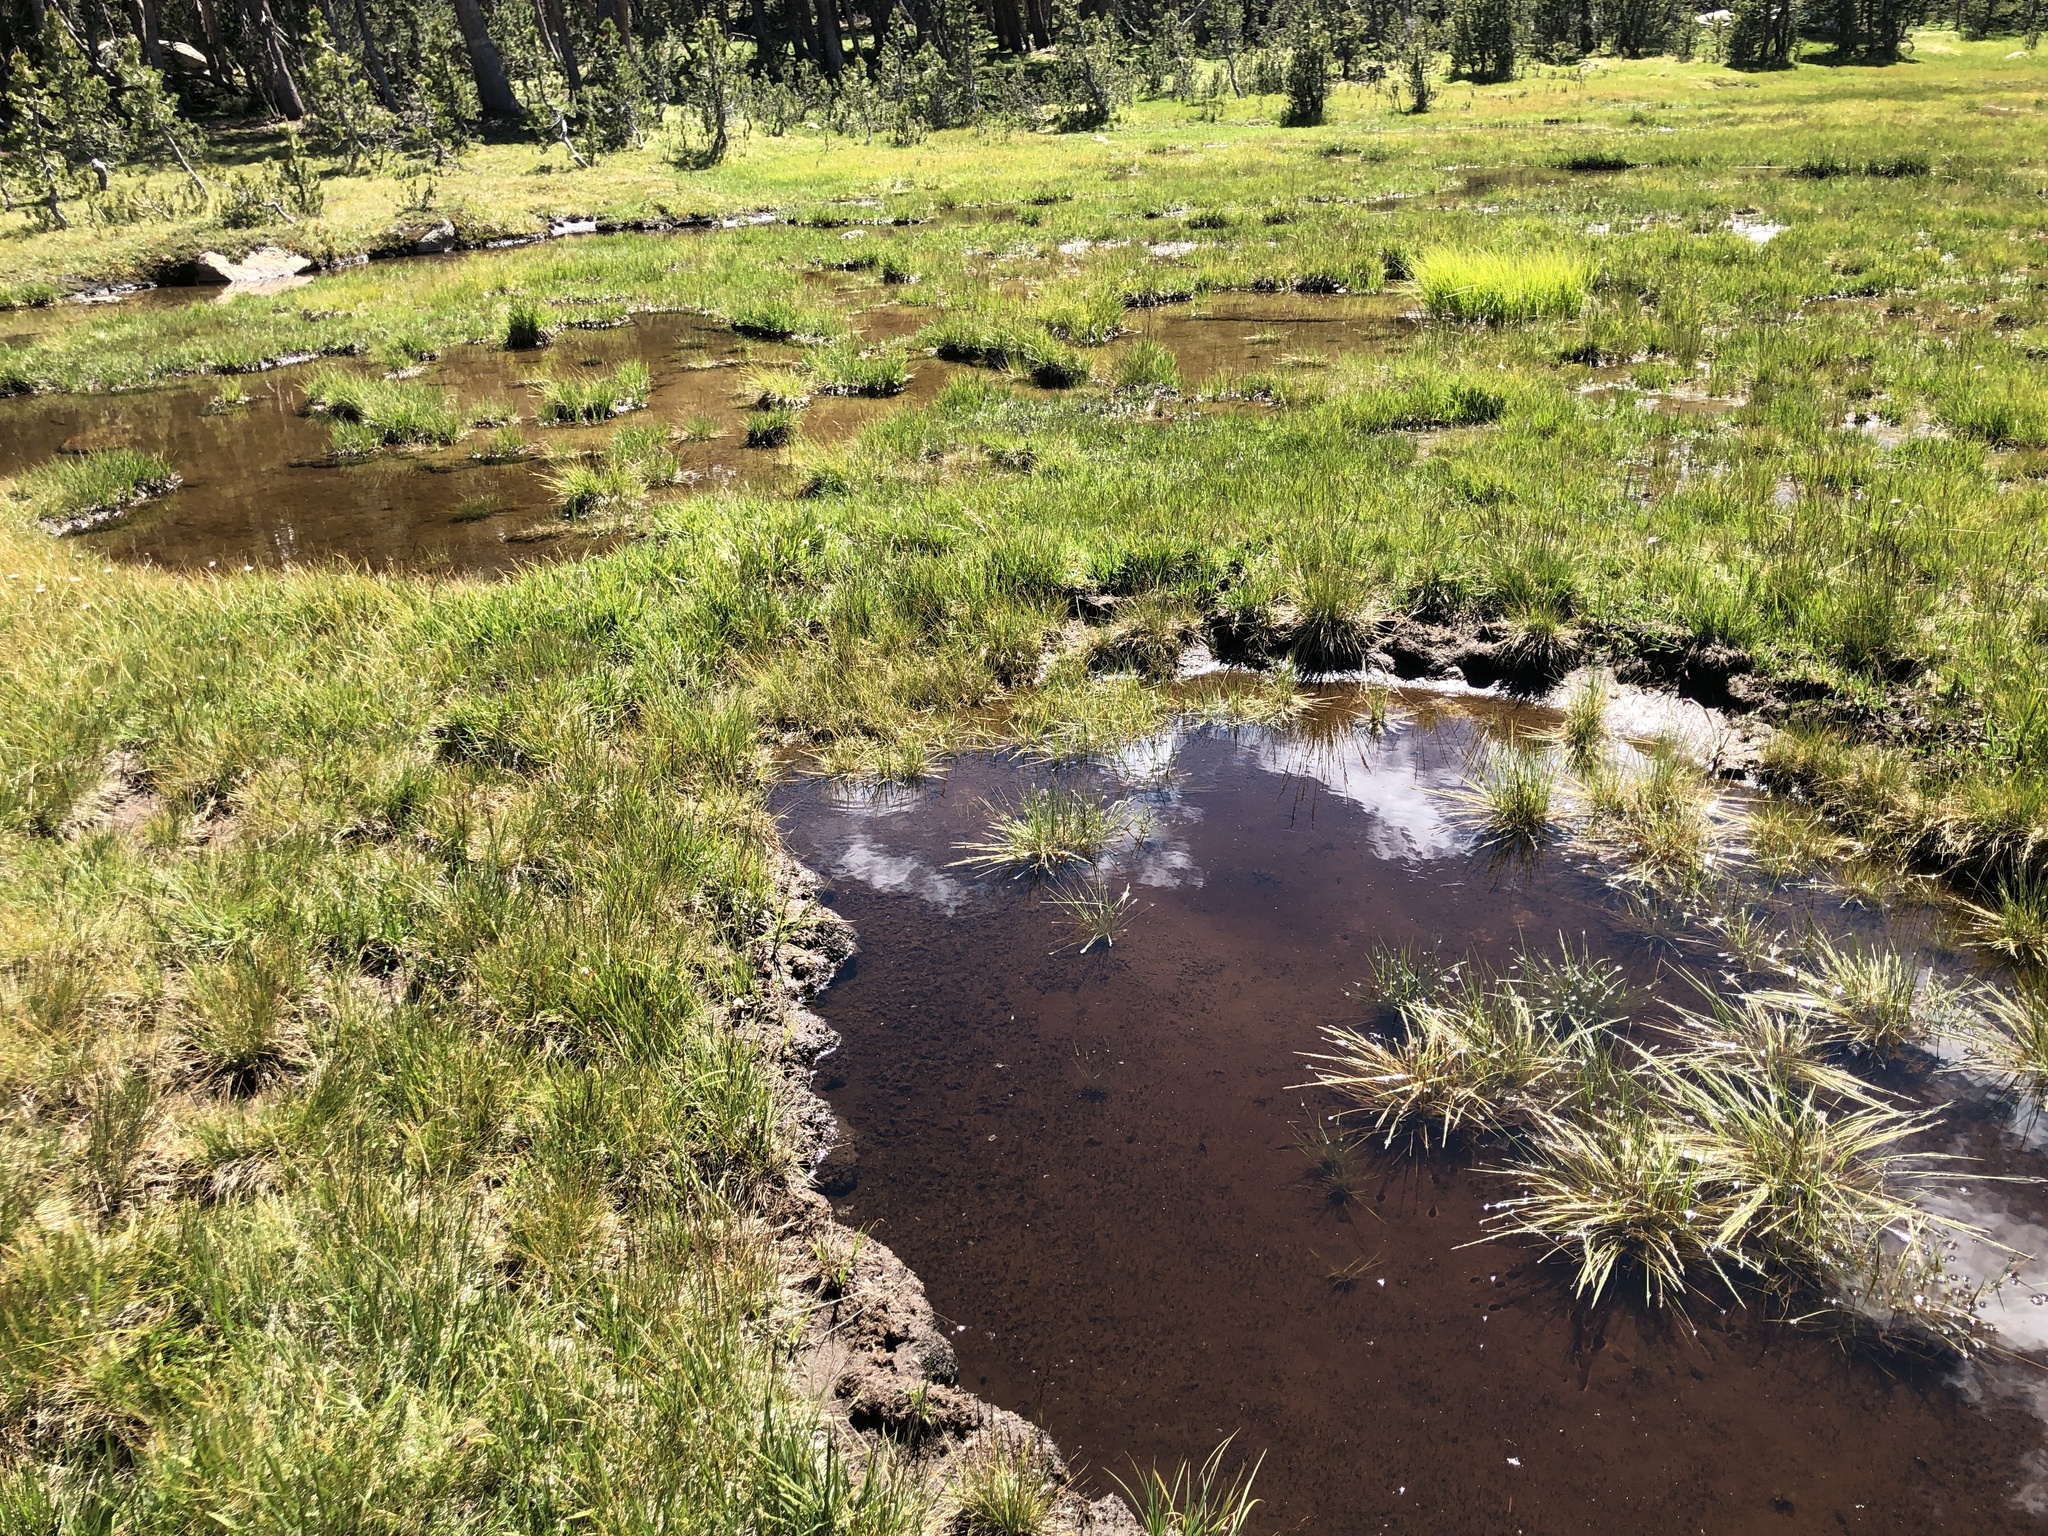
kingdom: Fungi
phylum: Basidiomycota
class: Agaricomycetes
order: Agaricales
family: Bolbitiaceae
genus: Galeropsis
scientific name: Galeropsis polytrichoides
